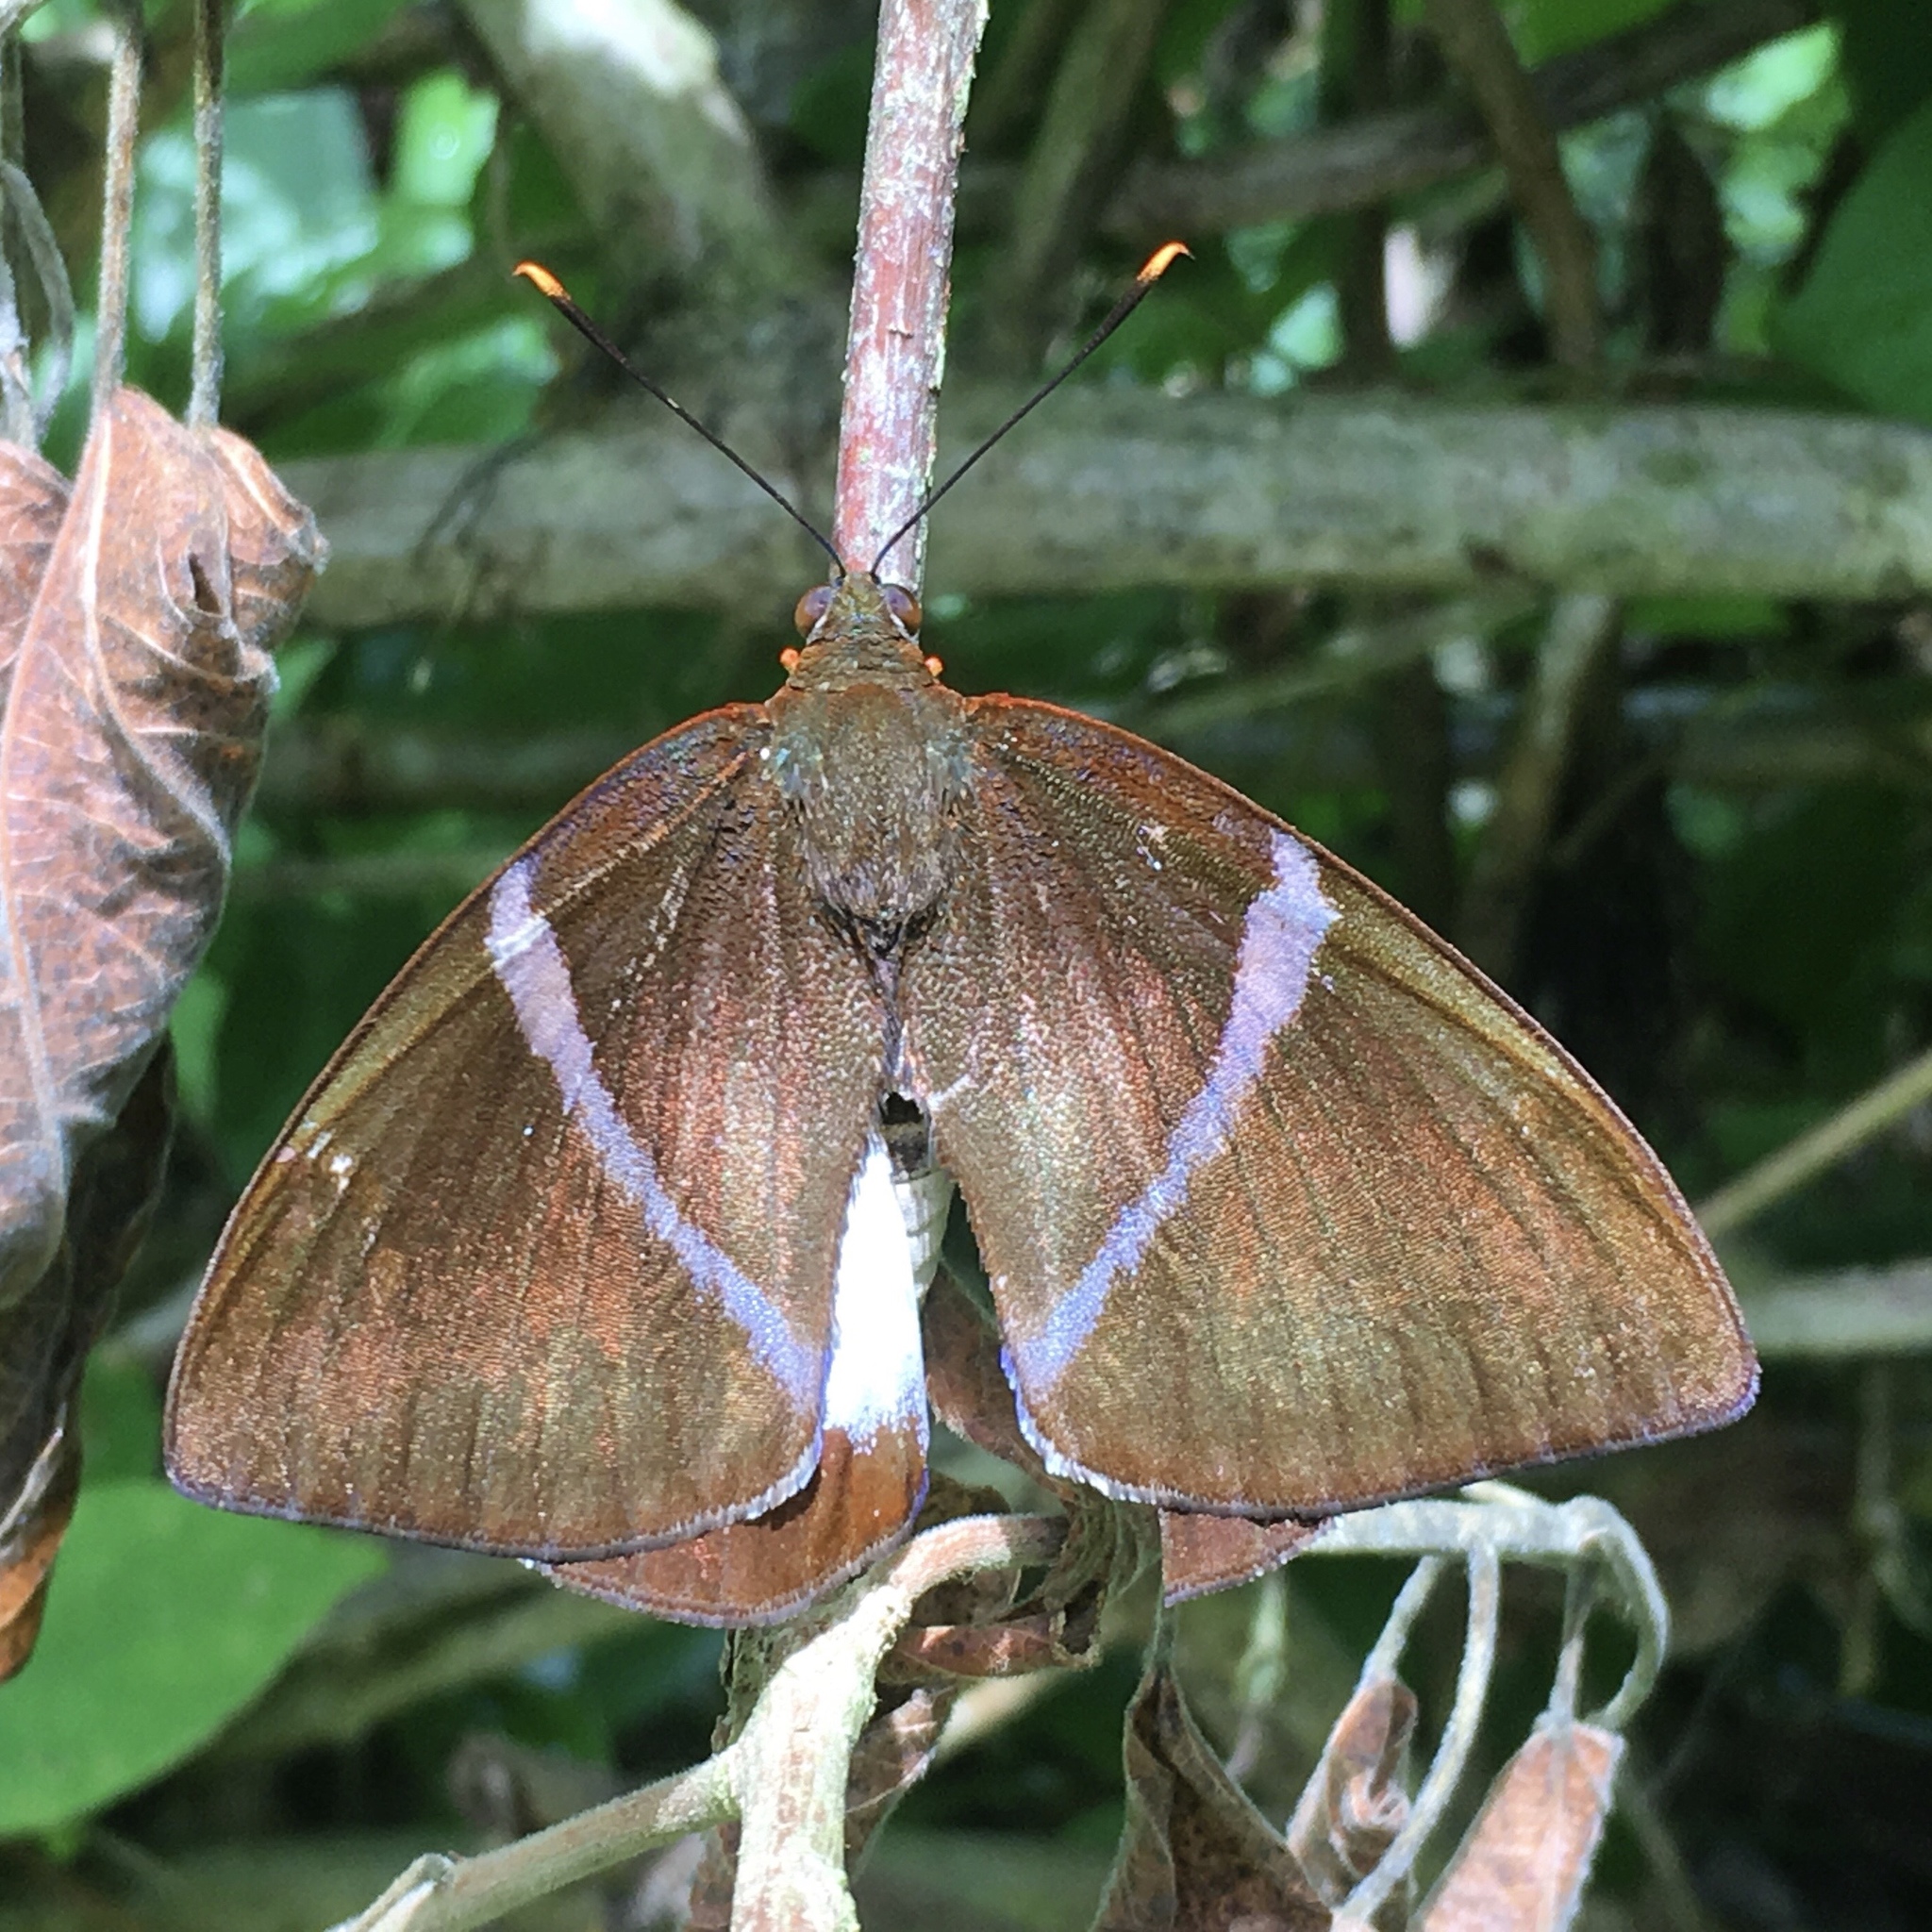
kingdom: Animalia
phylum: Arthropoda
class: Insecta
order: Lepidoptera
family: Castniidae
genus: Castniomera
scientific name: Castniomera atymnius
